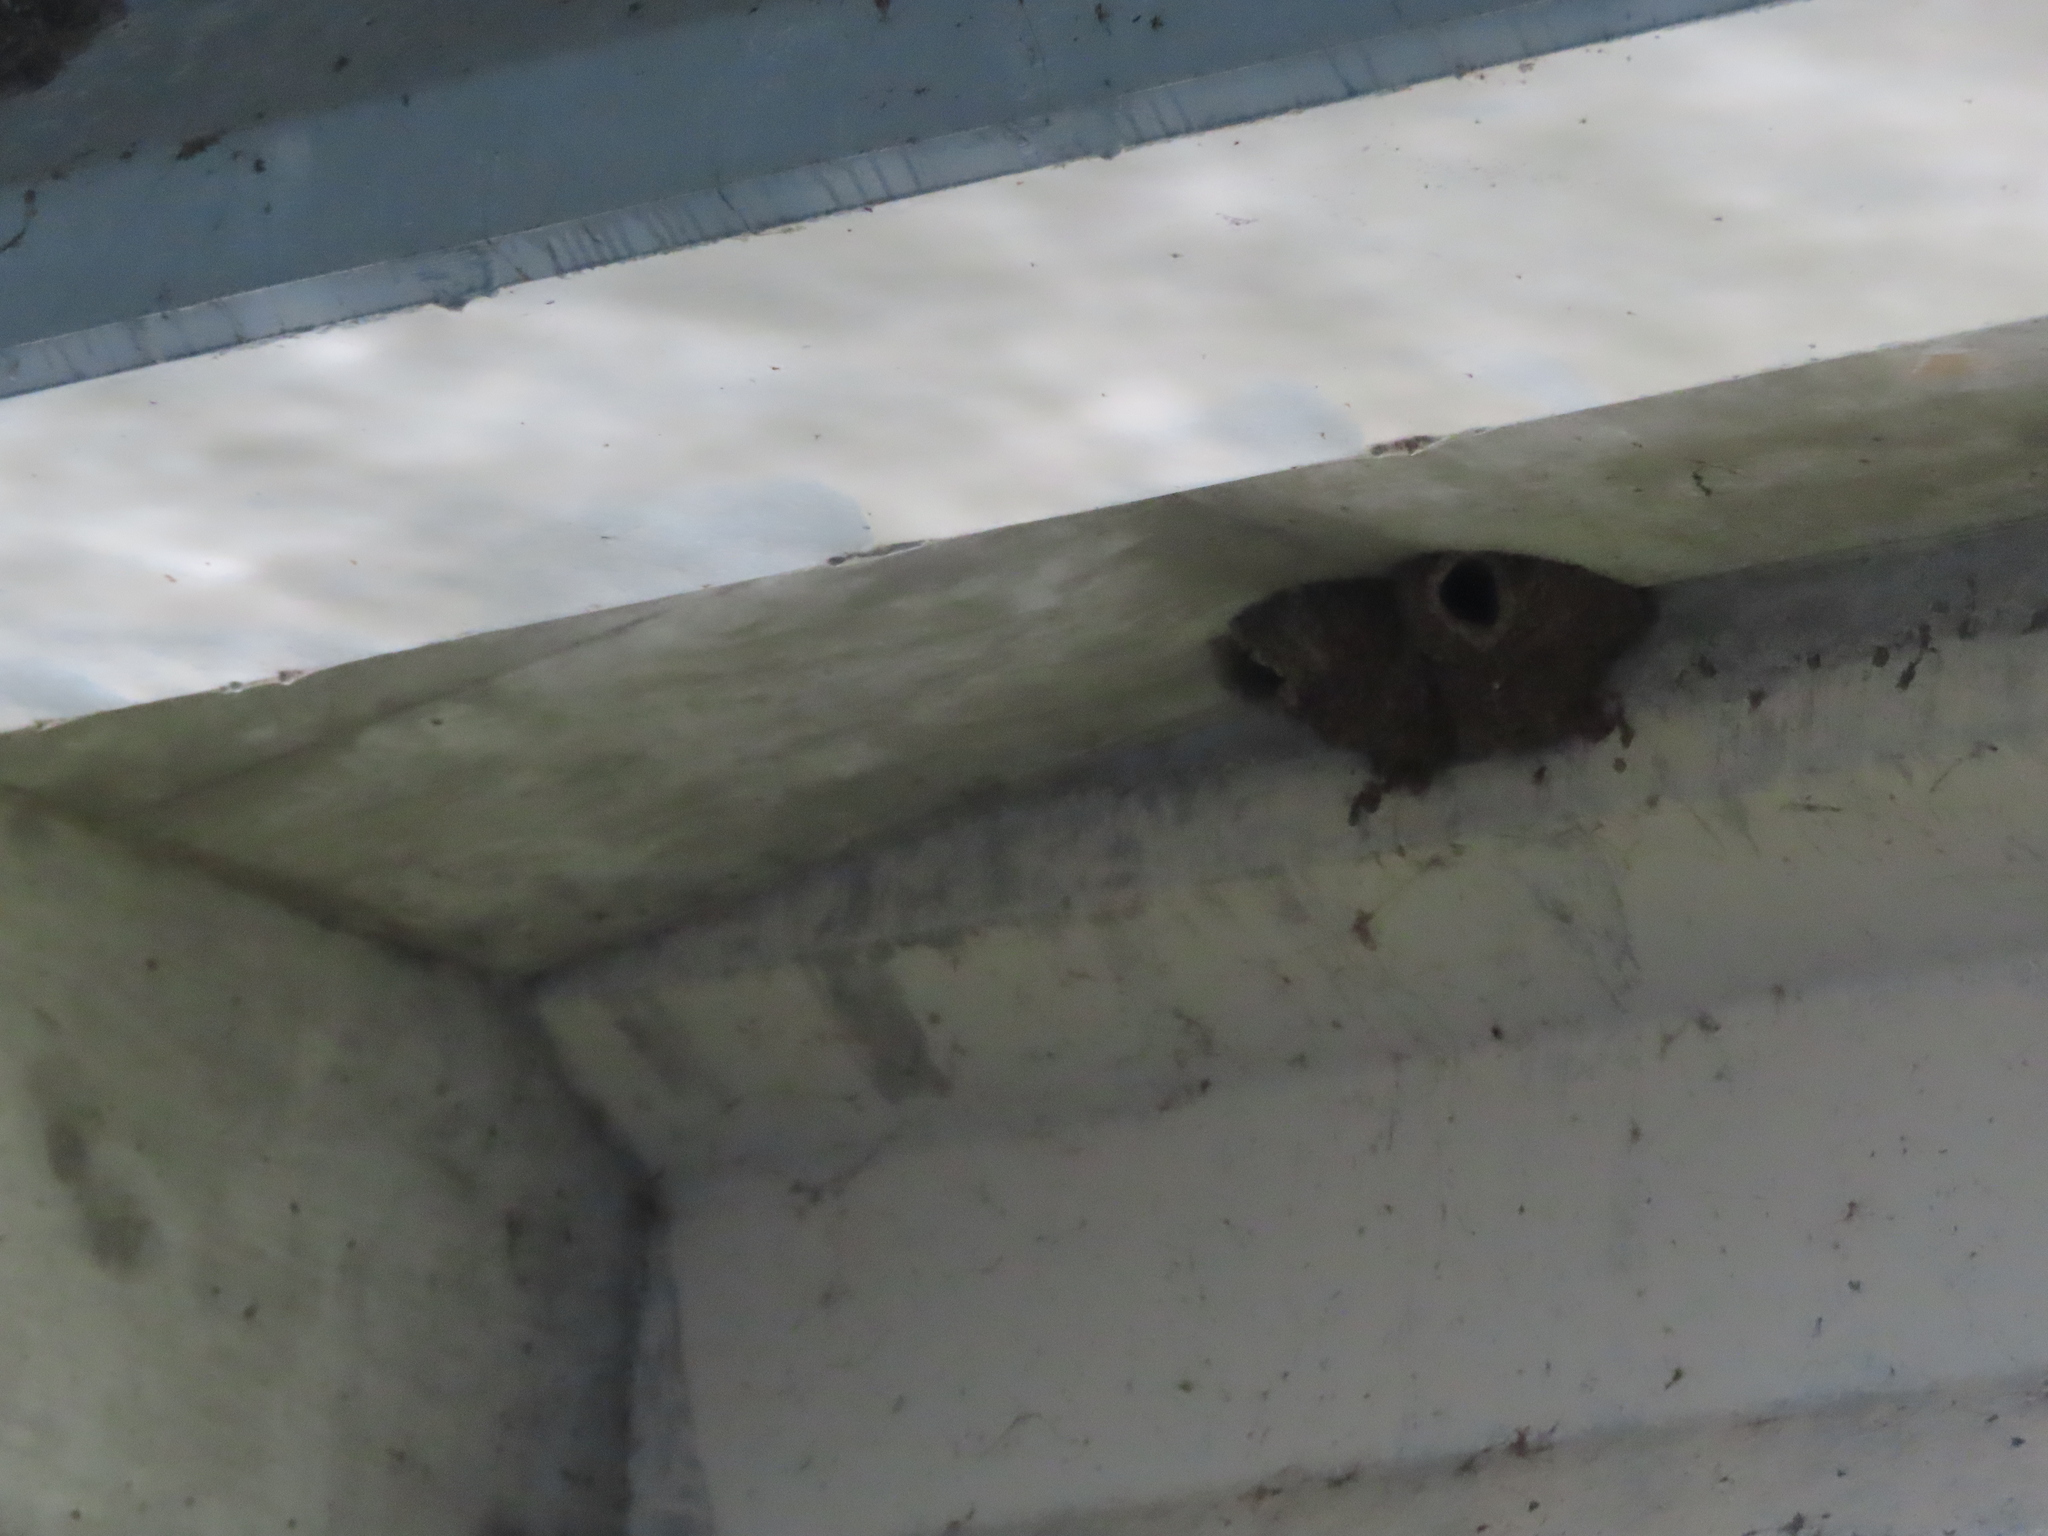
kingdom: Animalia
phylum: Chordata
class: Aves
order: Passeriformes
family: Hirundinidae
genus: Petrochelidon
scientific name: Petrochelidon pyrrhonota
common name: American cliff swallow
